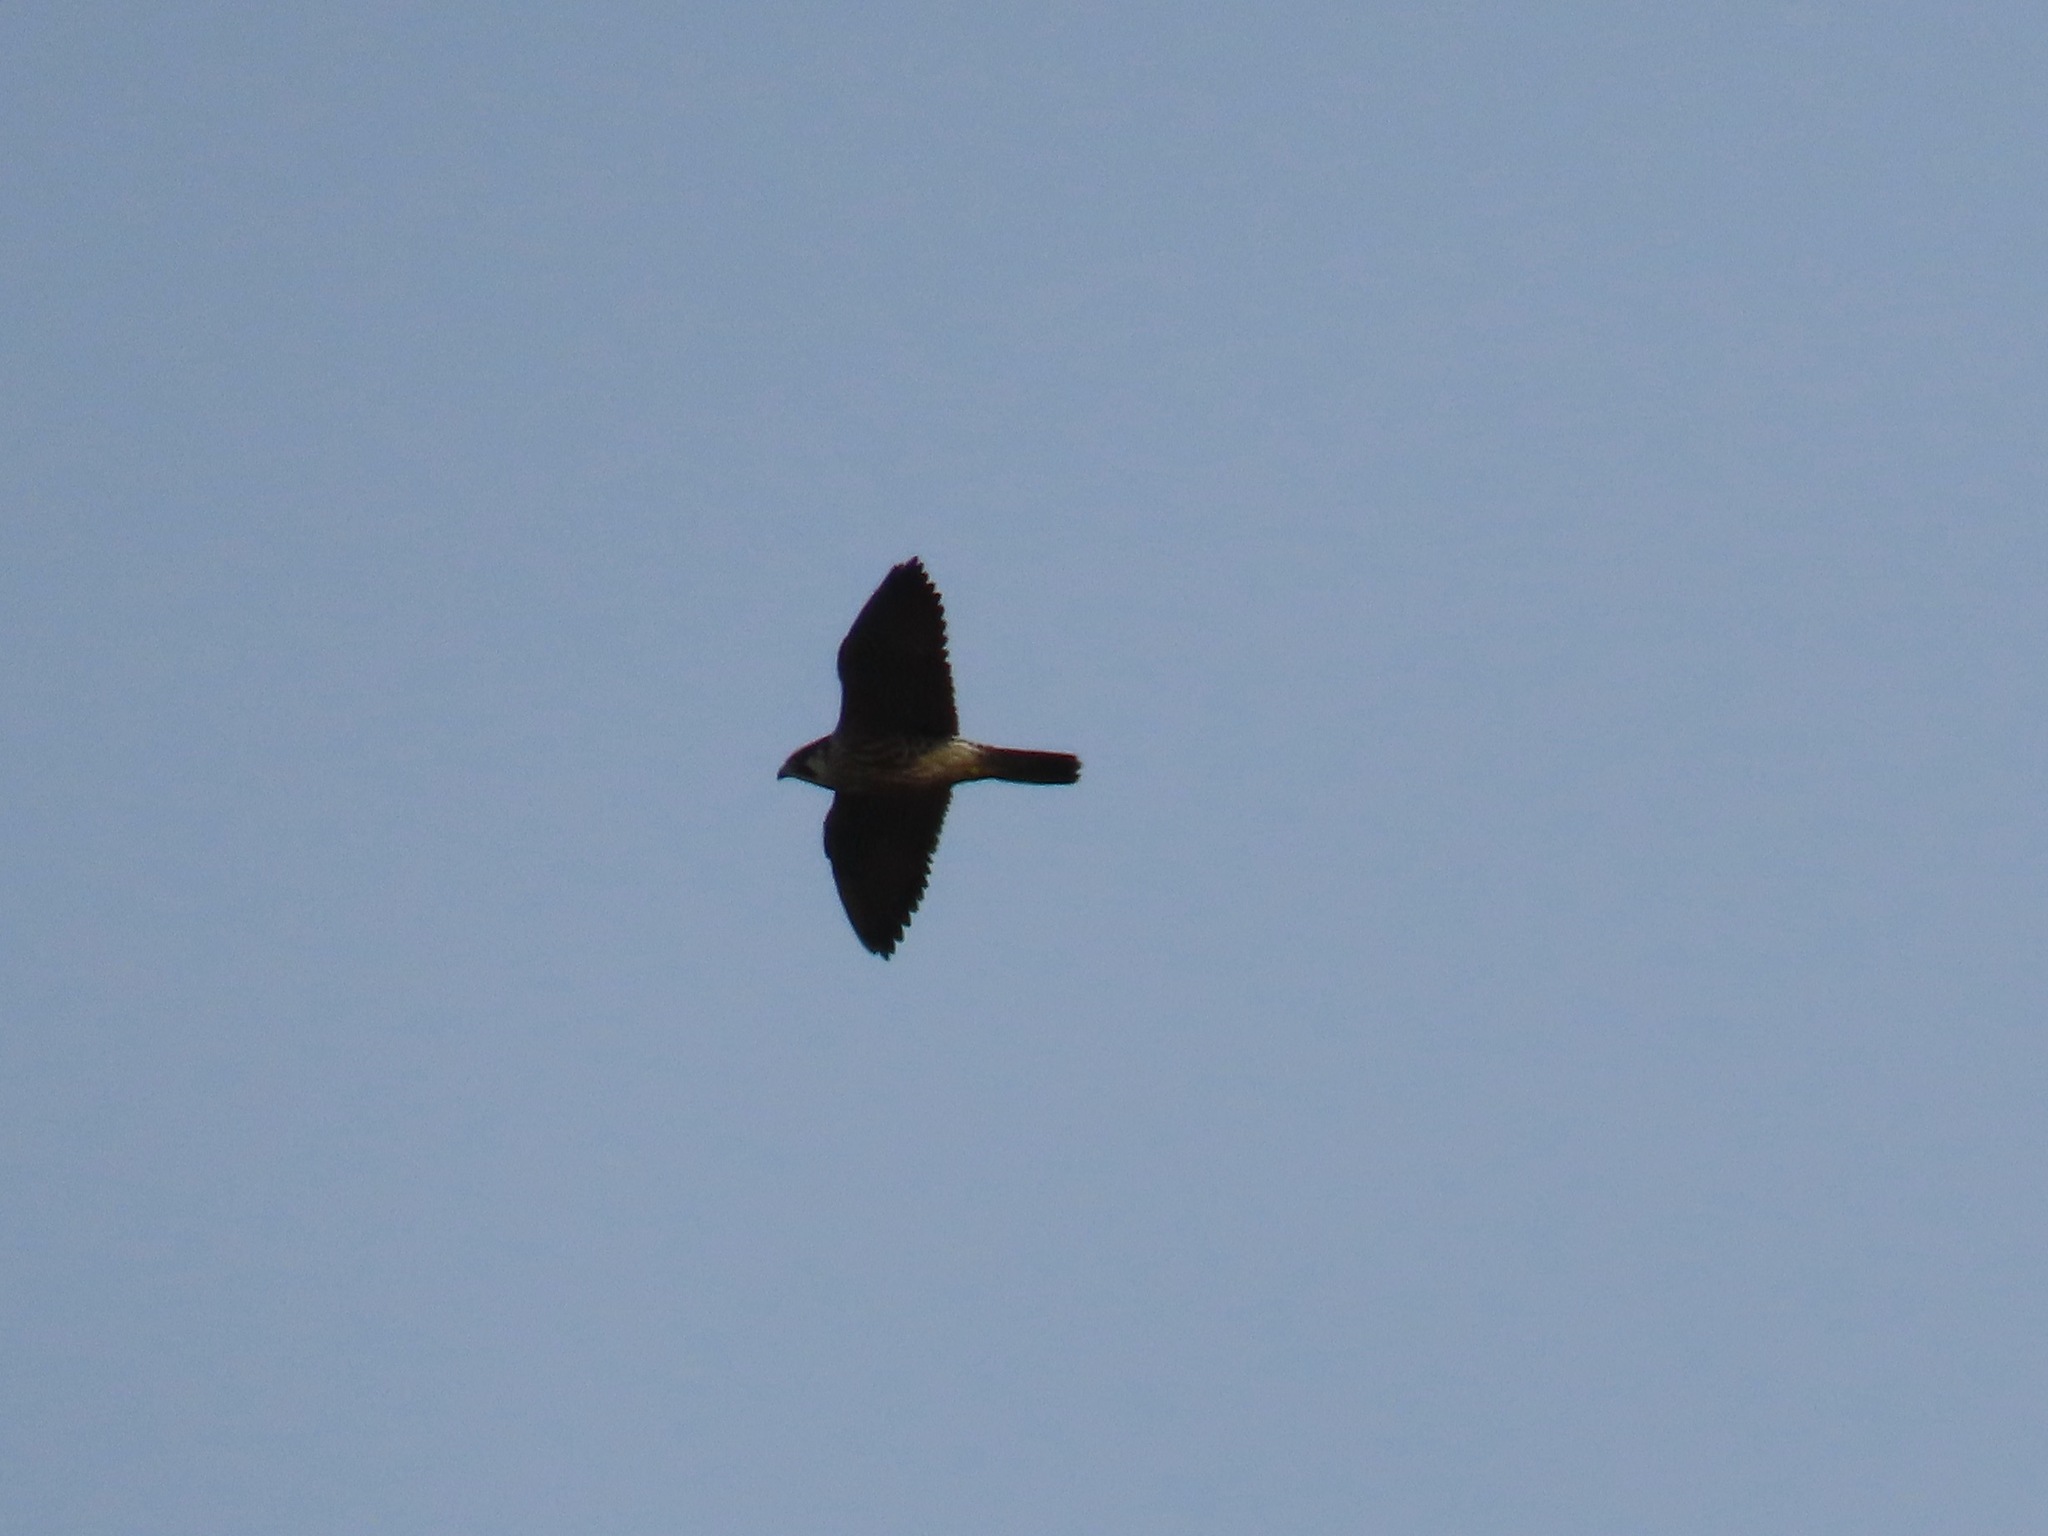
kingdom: Animalia
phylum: Chordata
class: Aves
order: Falconiformes
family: Falconidae
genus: Falco
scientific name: Falco peregrinus
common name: Peregrine falcon
